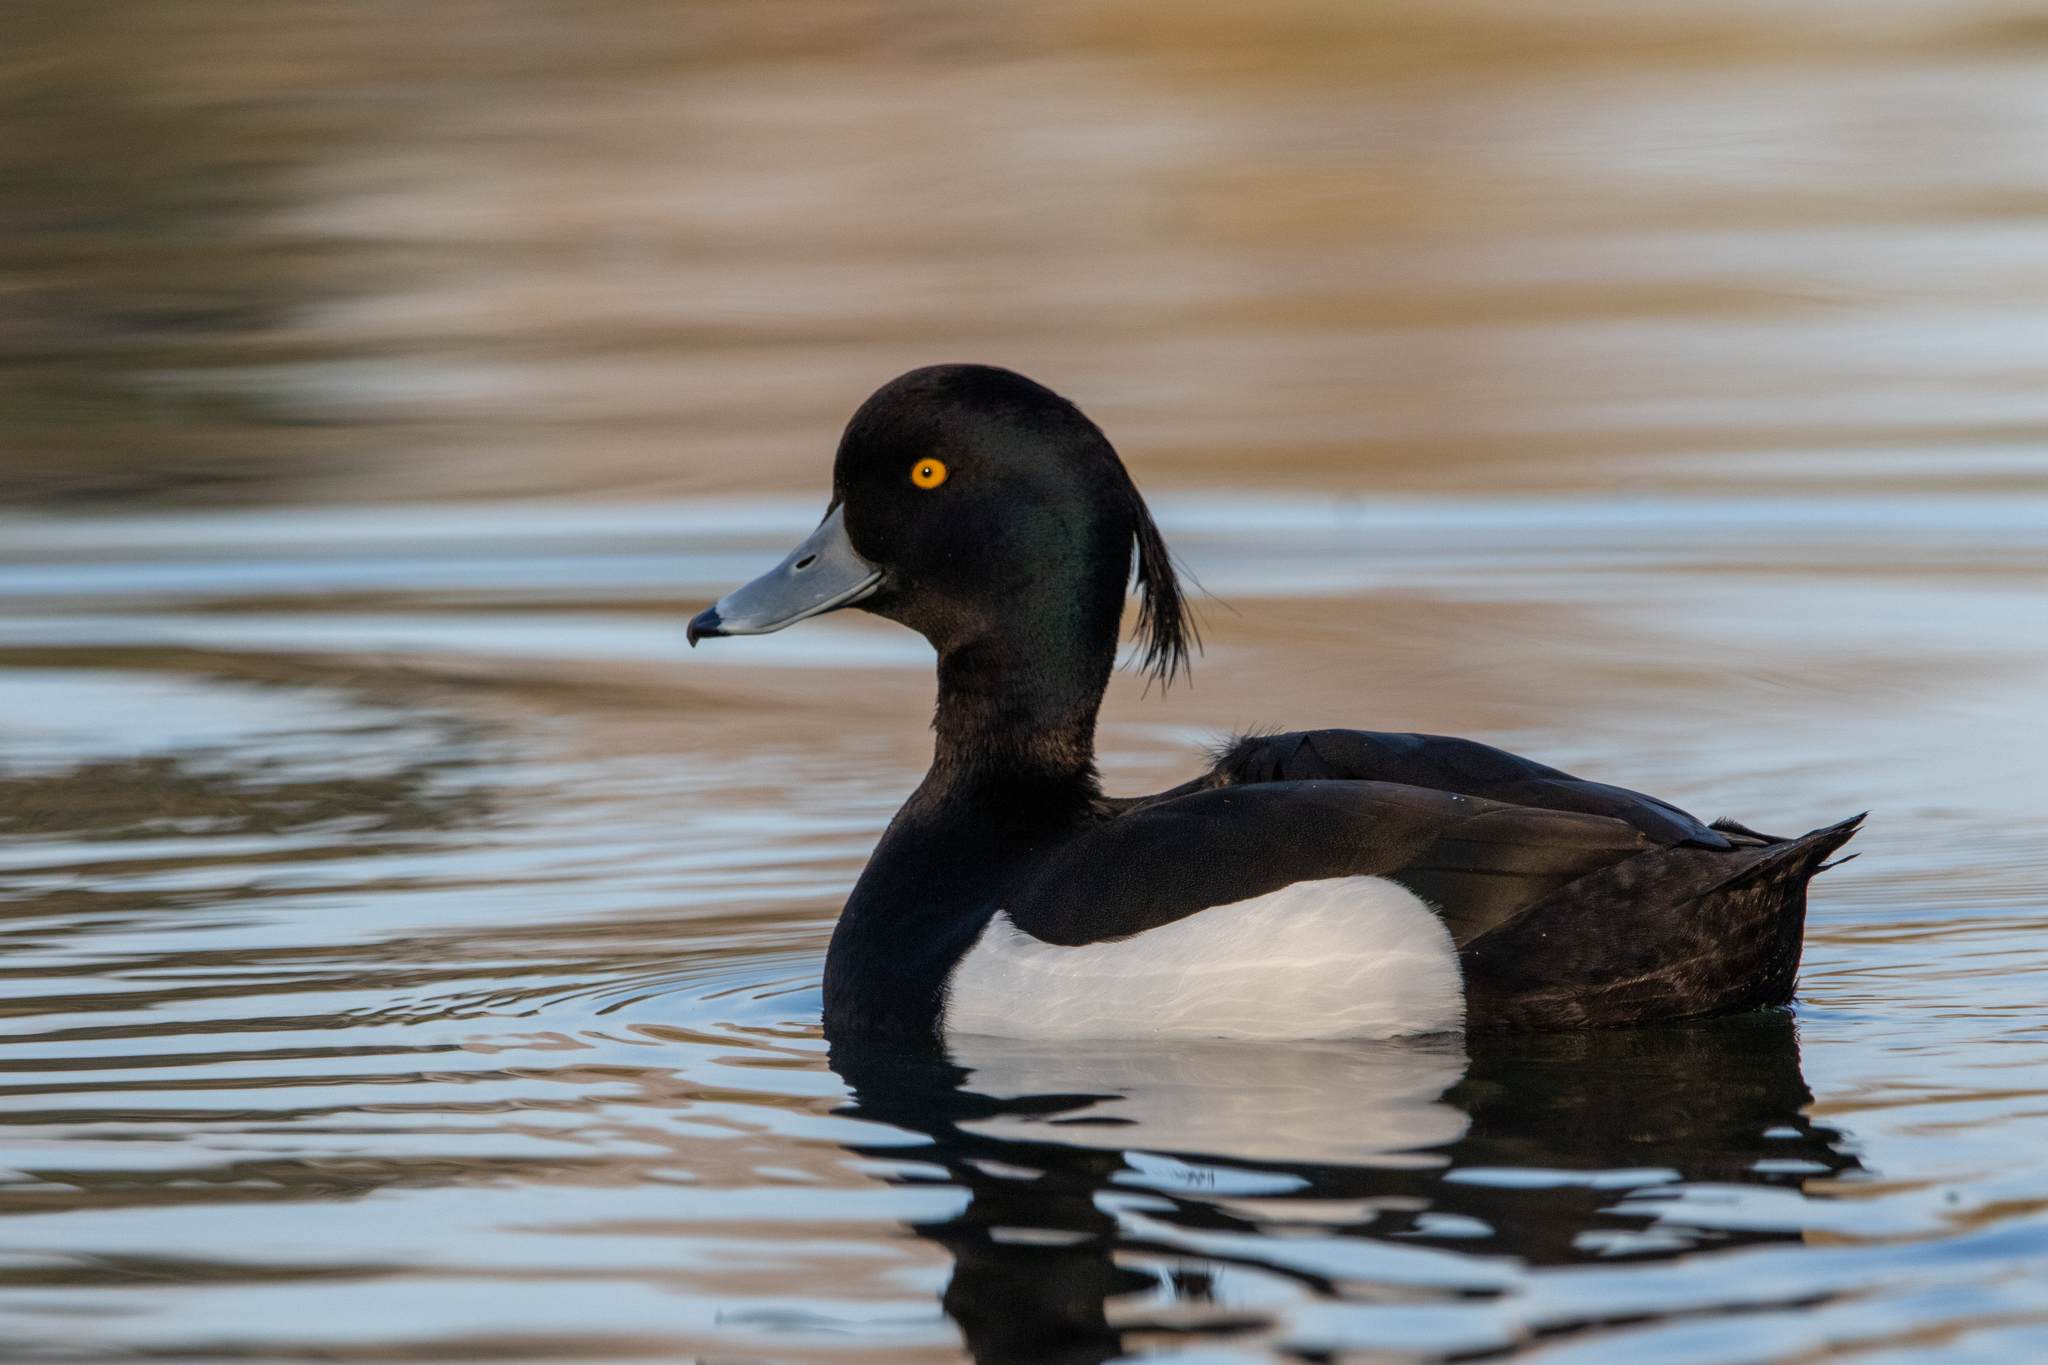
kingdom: Animalia
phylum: Chordata
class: Aves
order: Anseriformes
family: Anatidae
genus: Aythya
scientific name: Aythya fuligula
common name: Tufted duck
